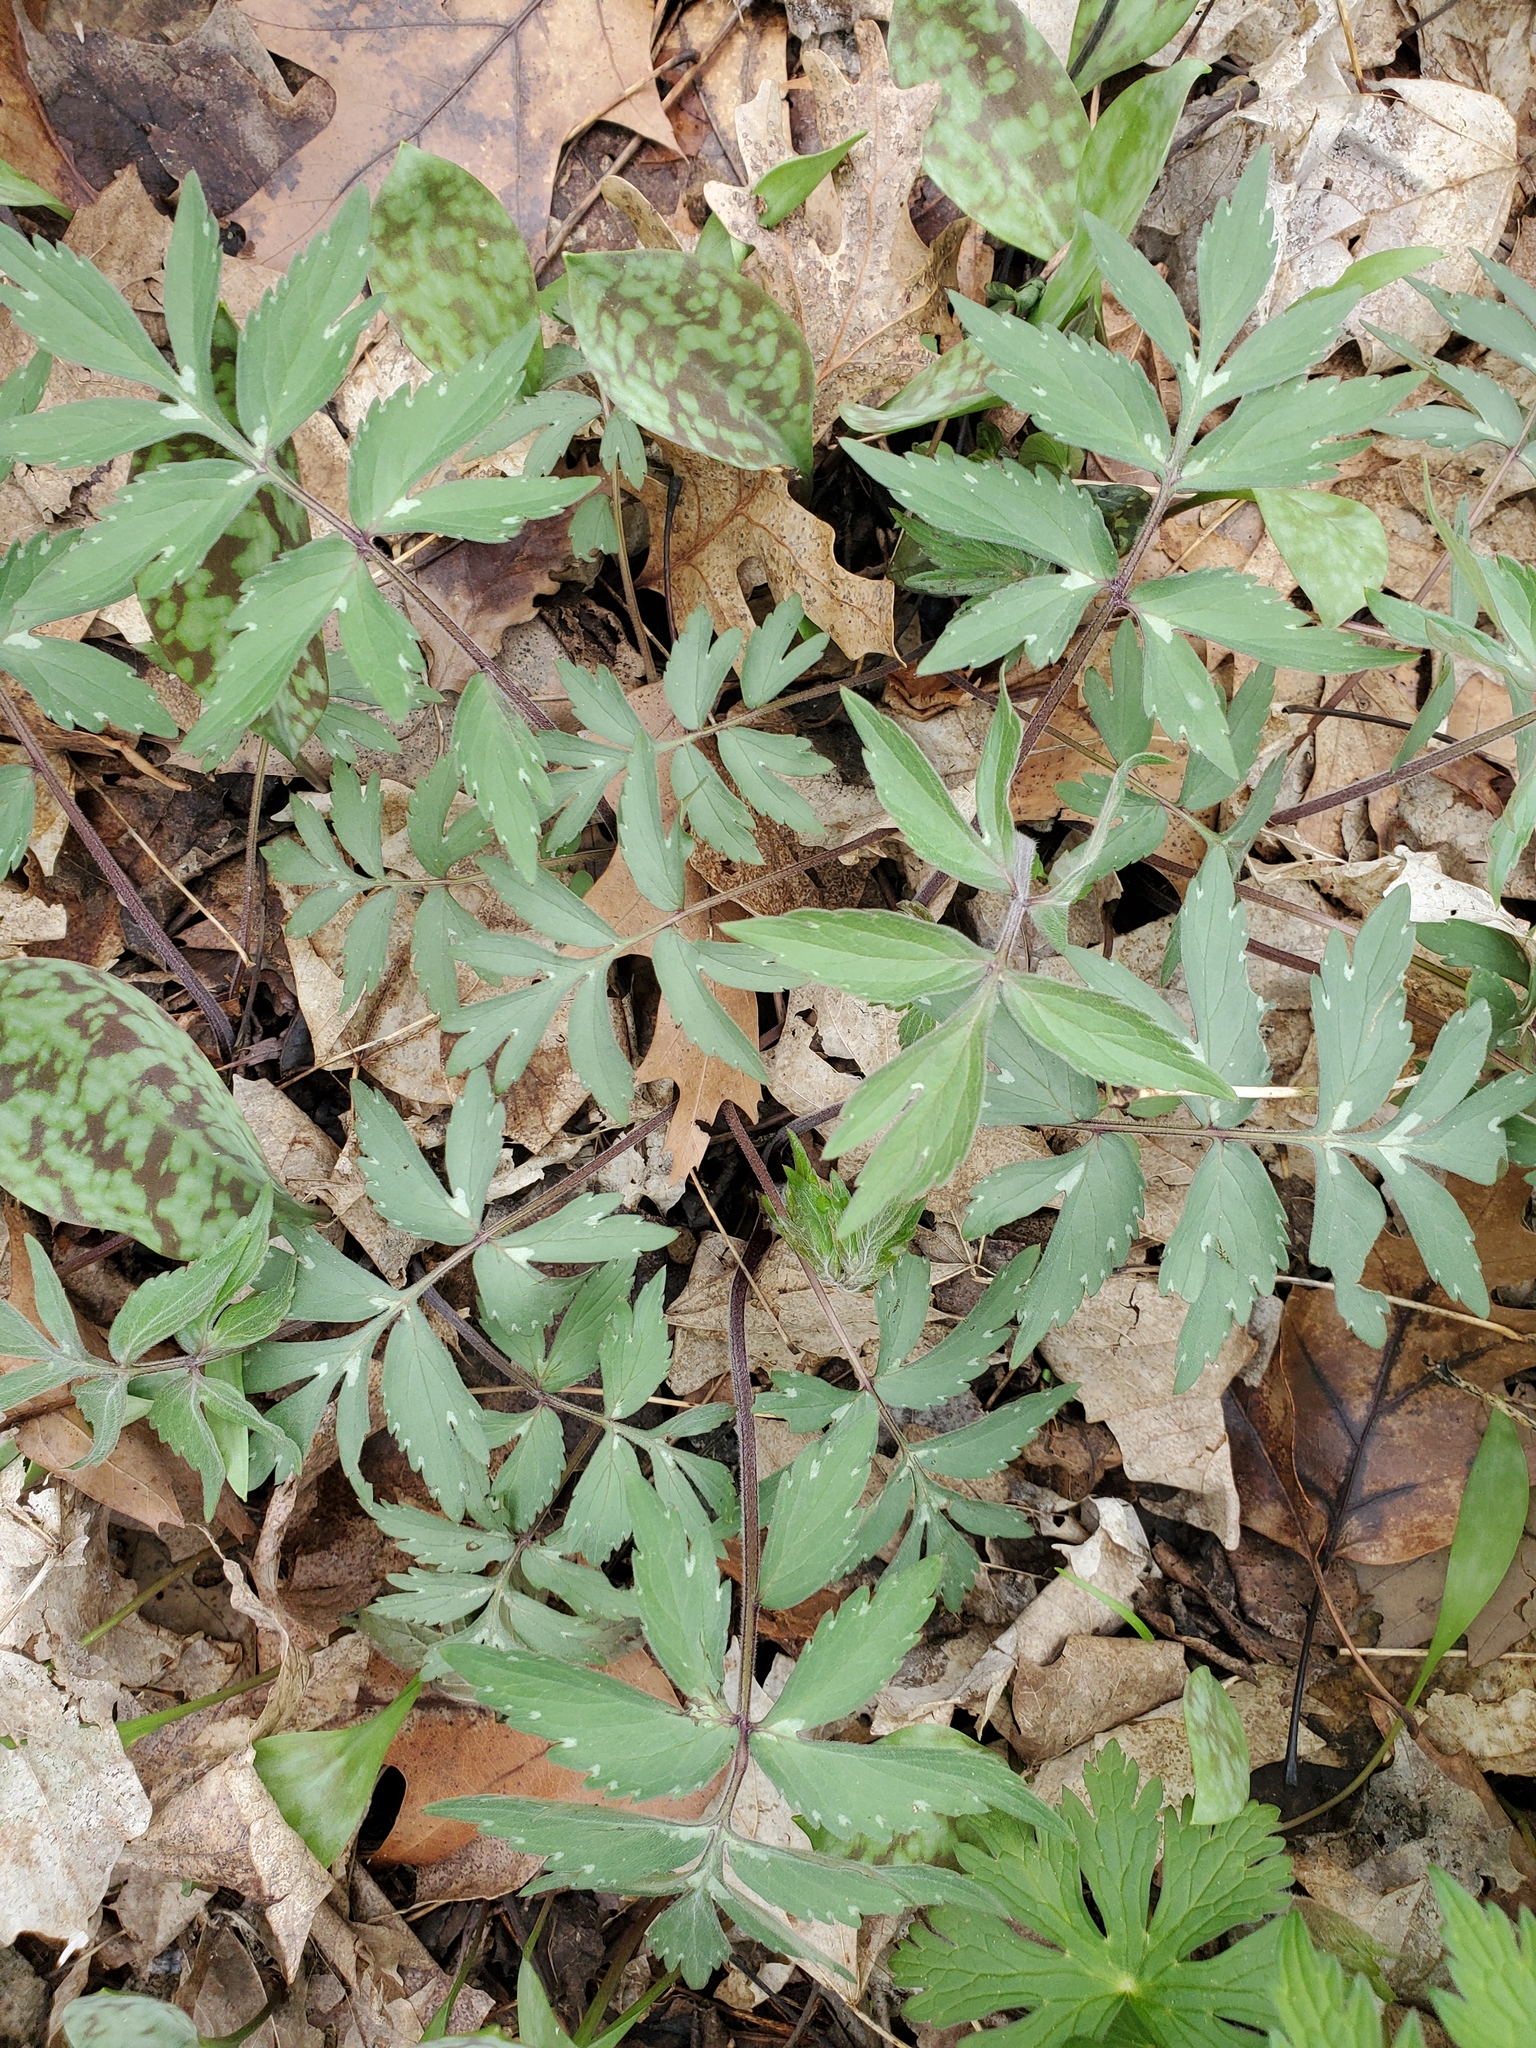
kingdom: Plantae
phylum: Tracheophyta
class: Magnoliopsida
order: Boraginales
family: Hydrophyllaceae
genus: Hydrophyllum
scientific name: Hydrophyllum virginianum
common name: Virginia waterleaf
